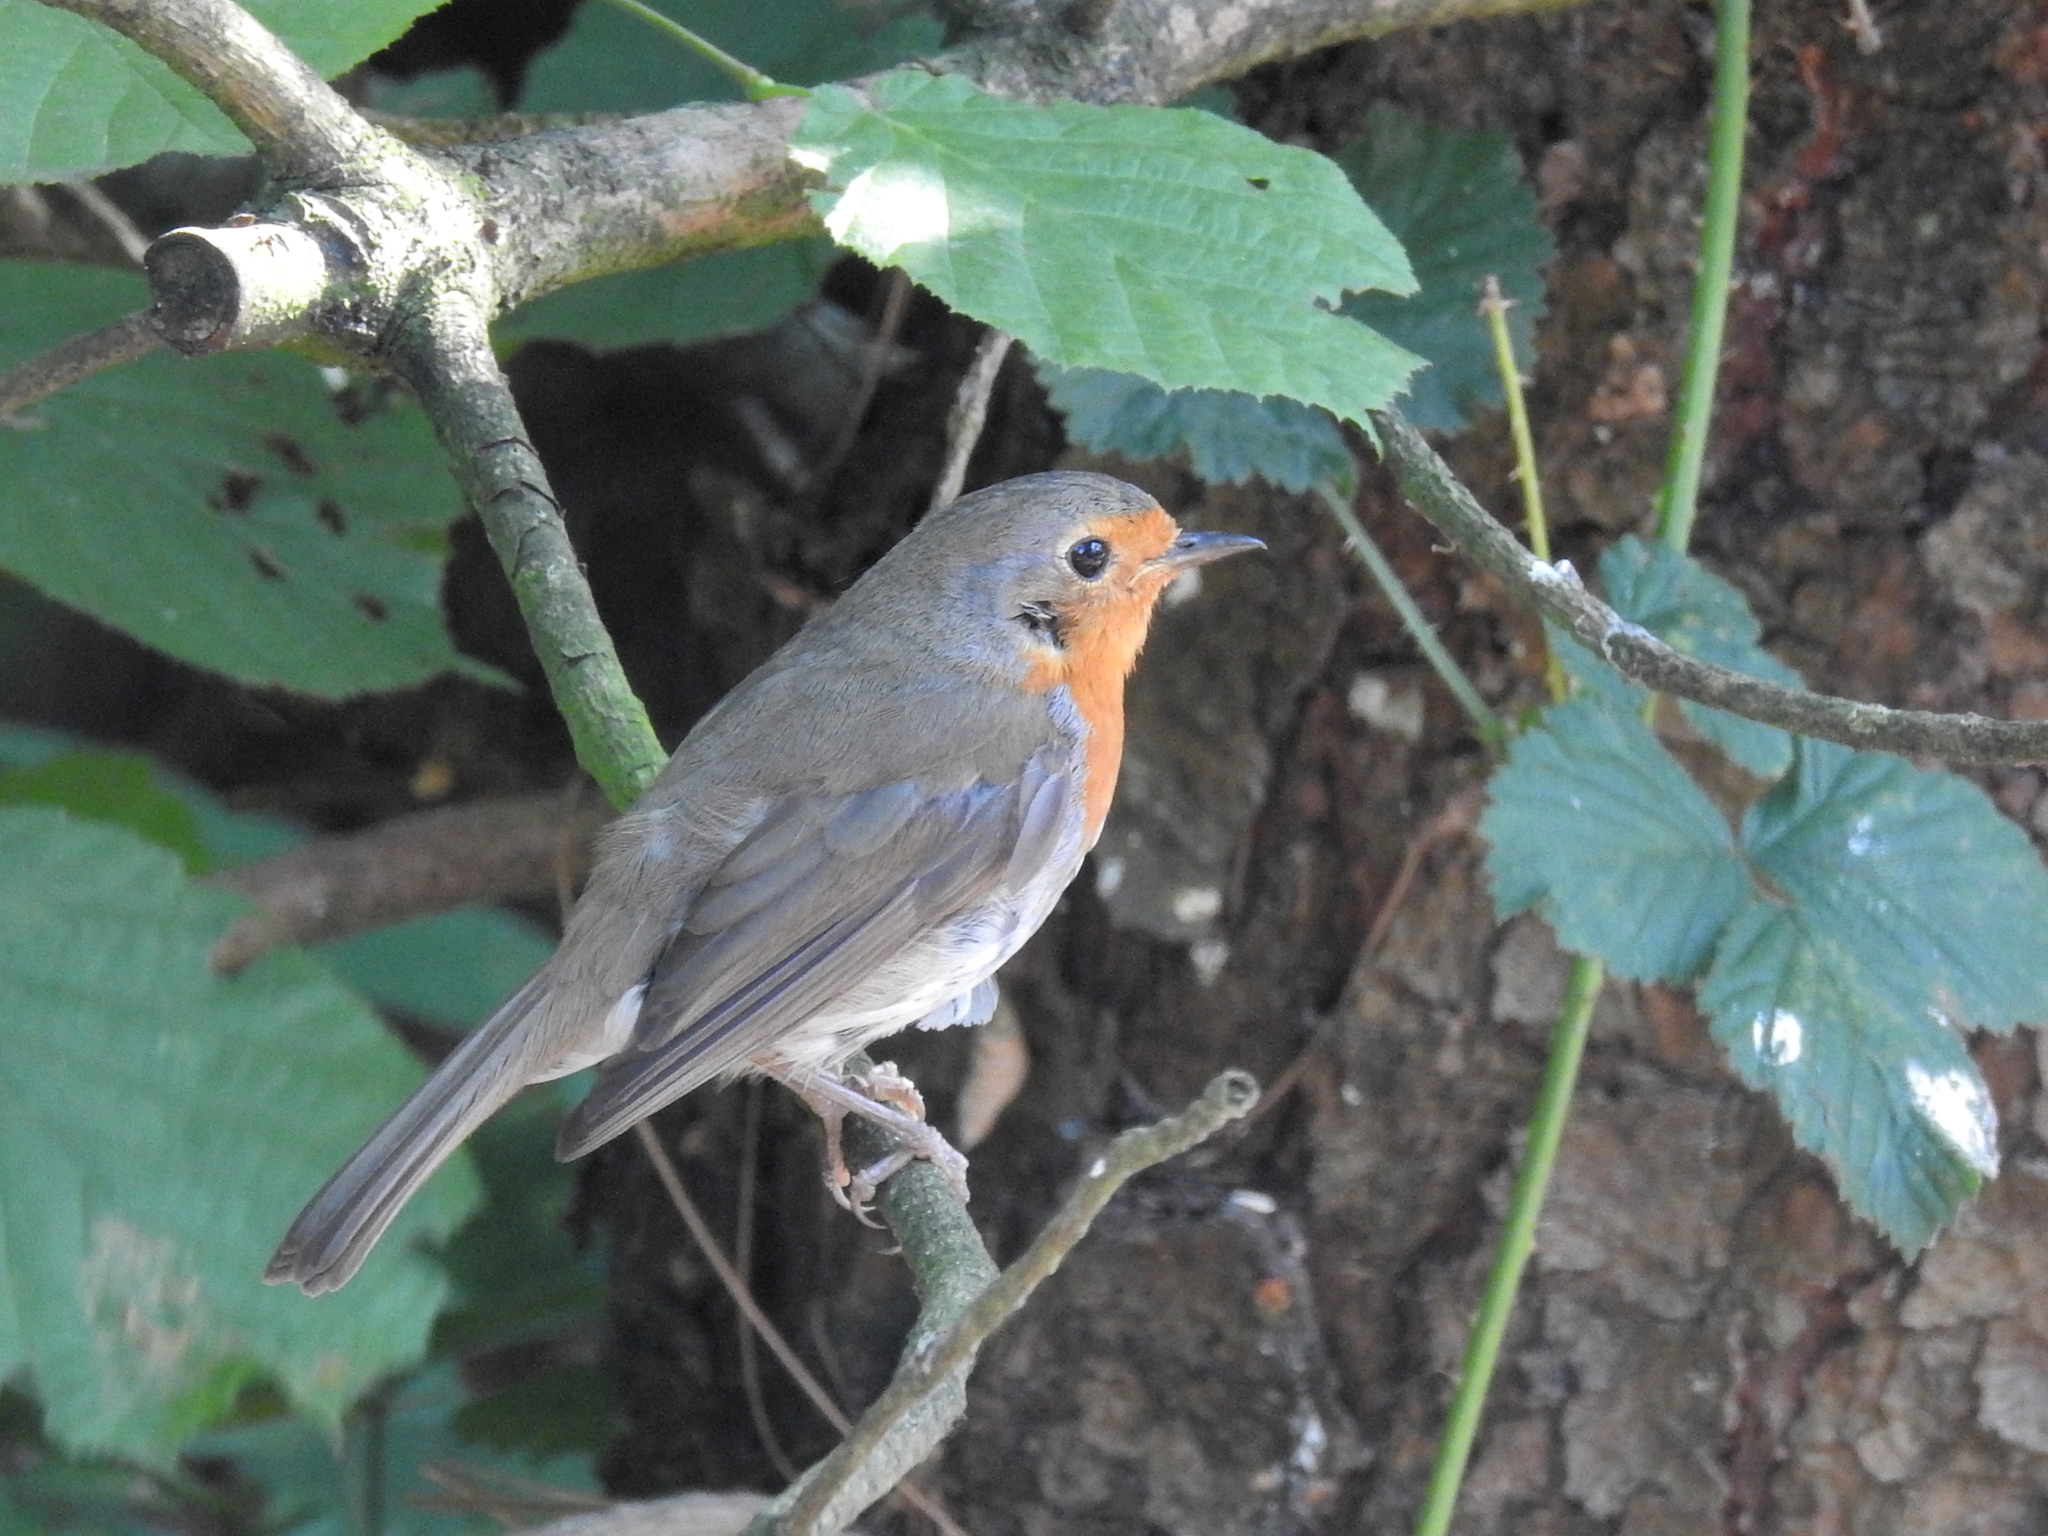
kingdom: Animalia
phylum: Chordata
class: Aves
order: Passeriformes
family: Muscicapidae
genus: Erithacus
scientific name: Erithacus rubecula
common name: European robin
